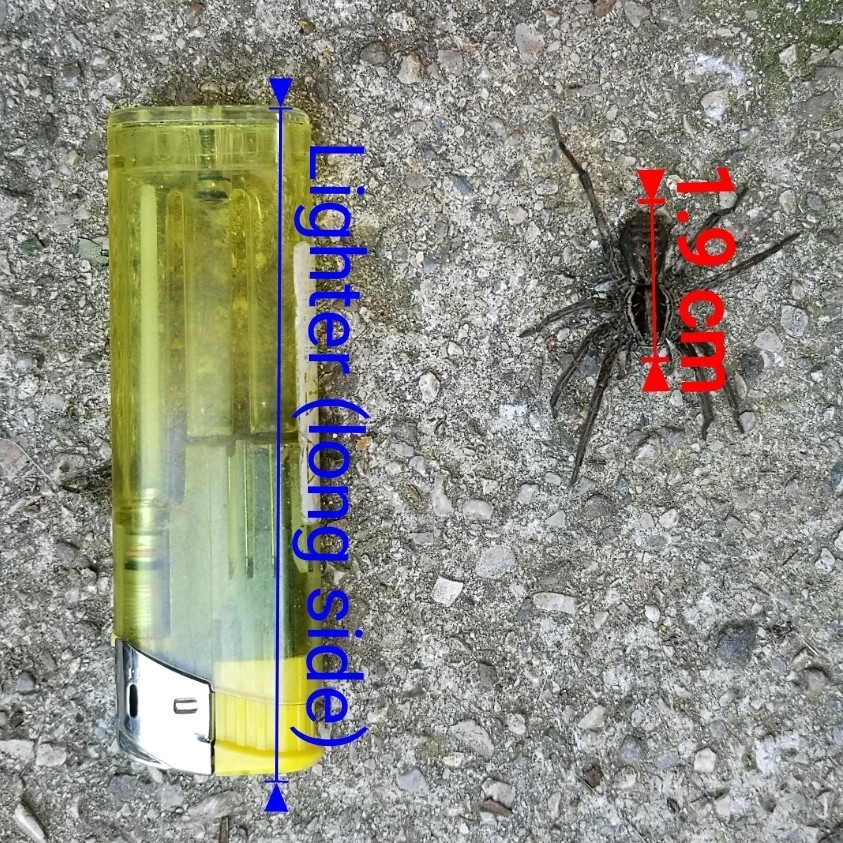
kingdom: Animalia
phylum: Arthropoda
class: Arachnida
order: Araneae
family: Lycosidae
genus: Hogna
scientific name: Hogna radiata
